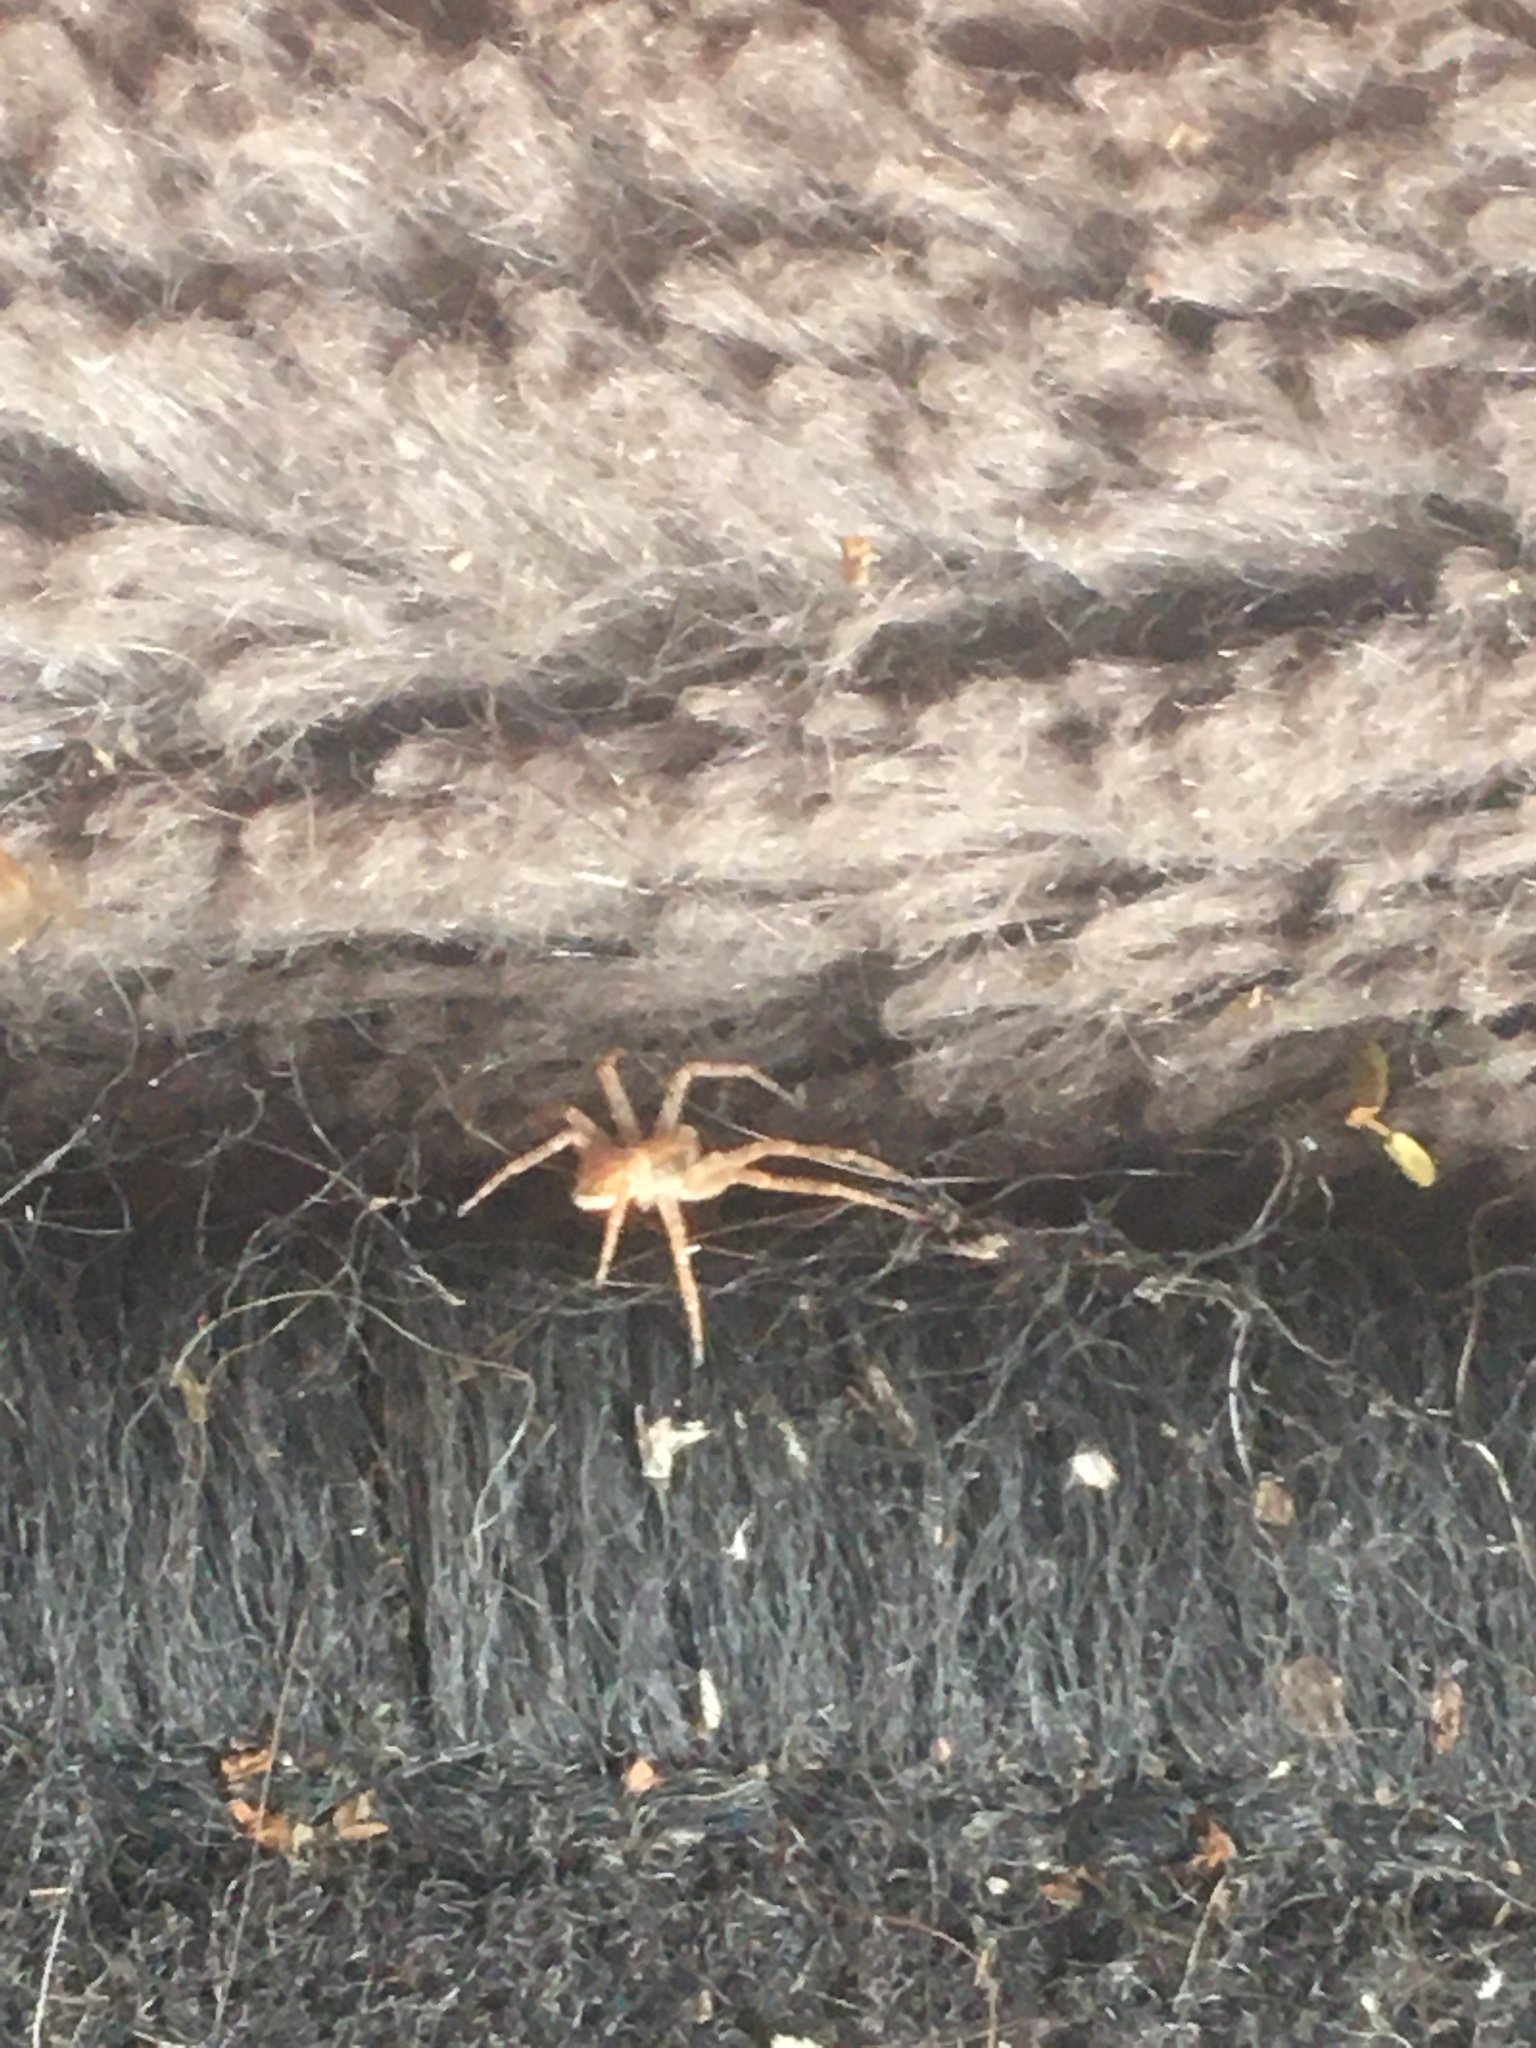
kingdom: Animalia
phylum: Arthropoda
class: Arachnida
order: Araneae
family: Philodromidae
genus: Philodromus
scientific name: Philodromus dispar
